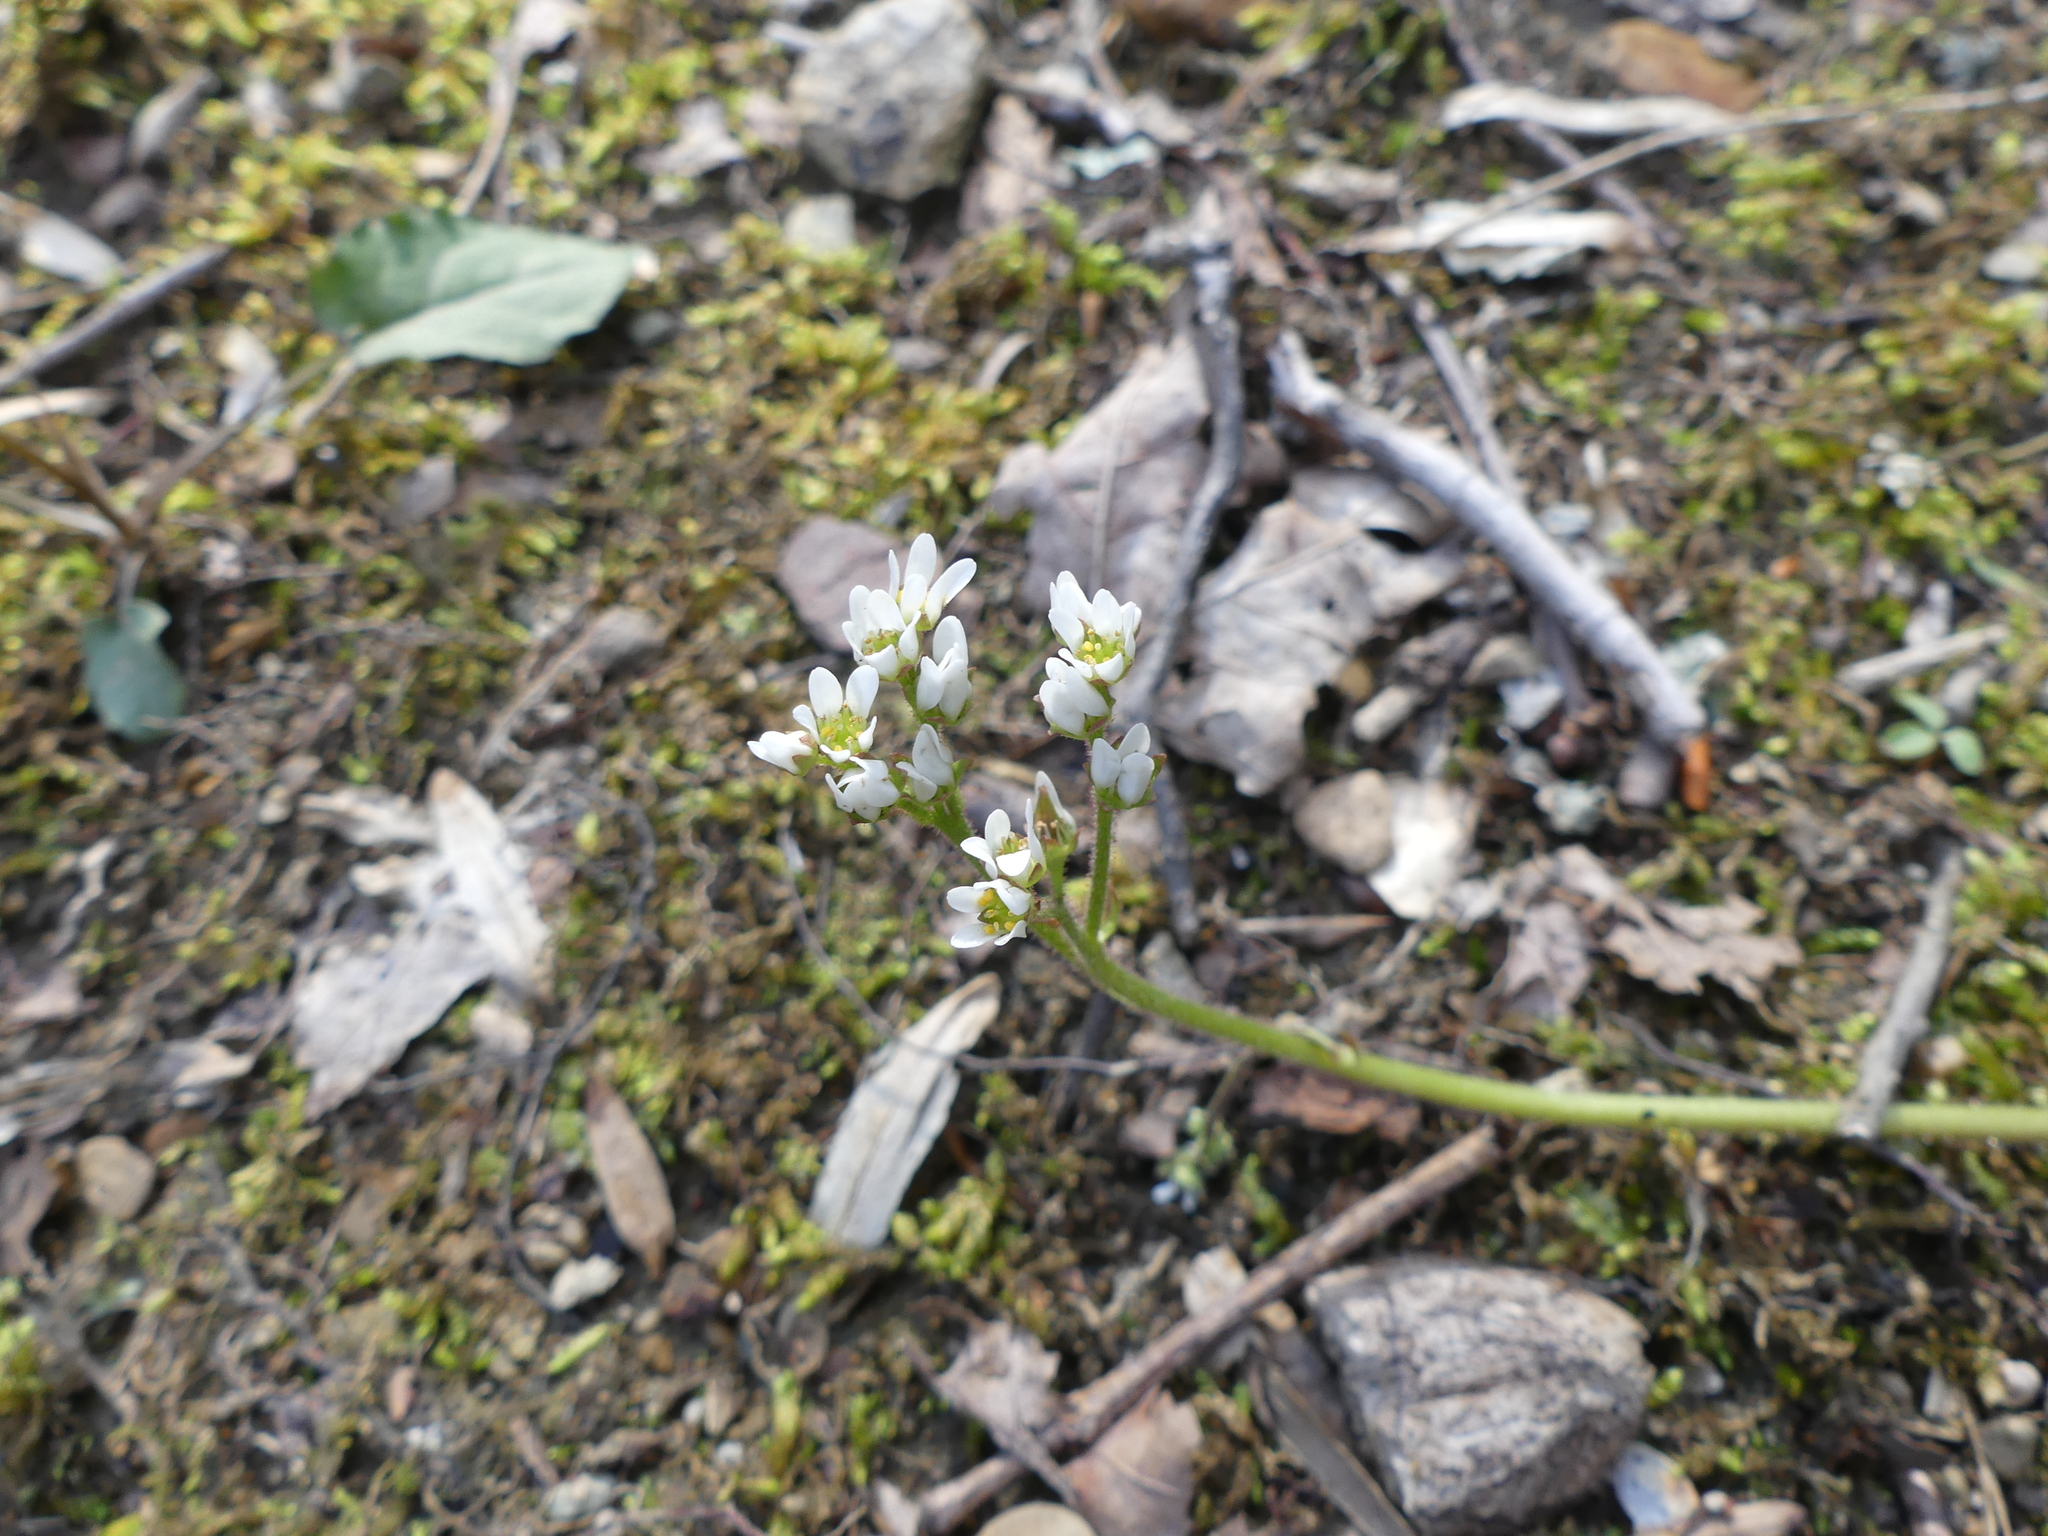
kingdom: Plantae
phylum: Tracheophyta
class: Magnoliopsida
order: Saxifragales
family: Saxifragaceae
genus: Micranthes
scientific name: Micranthes virginiensis
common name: Early saxifrage
